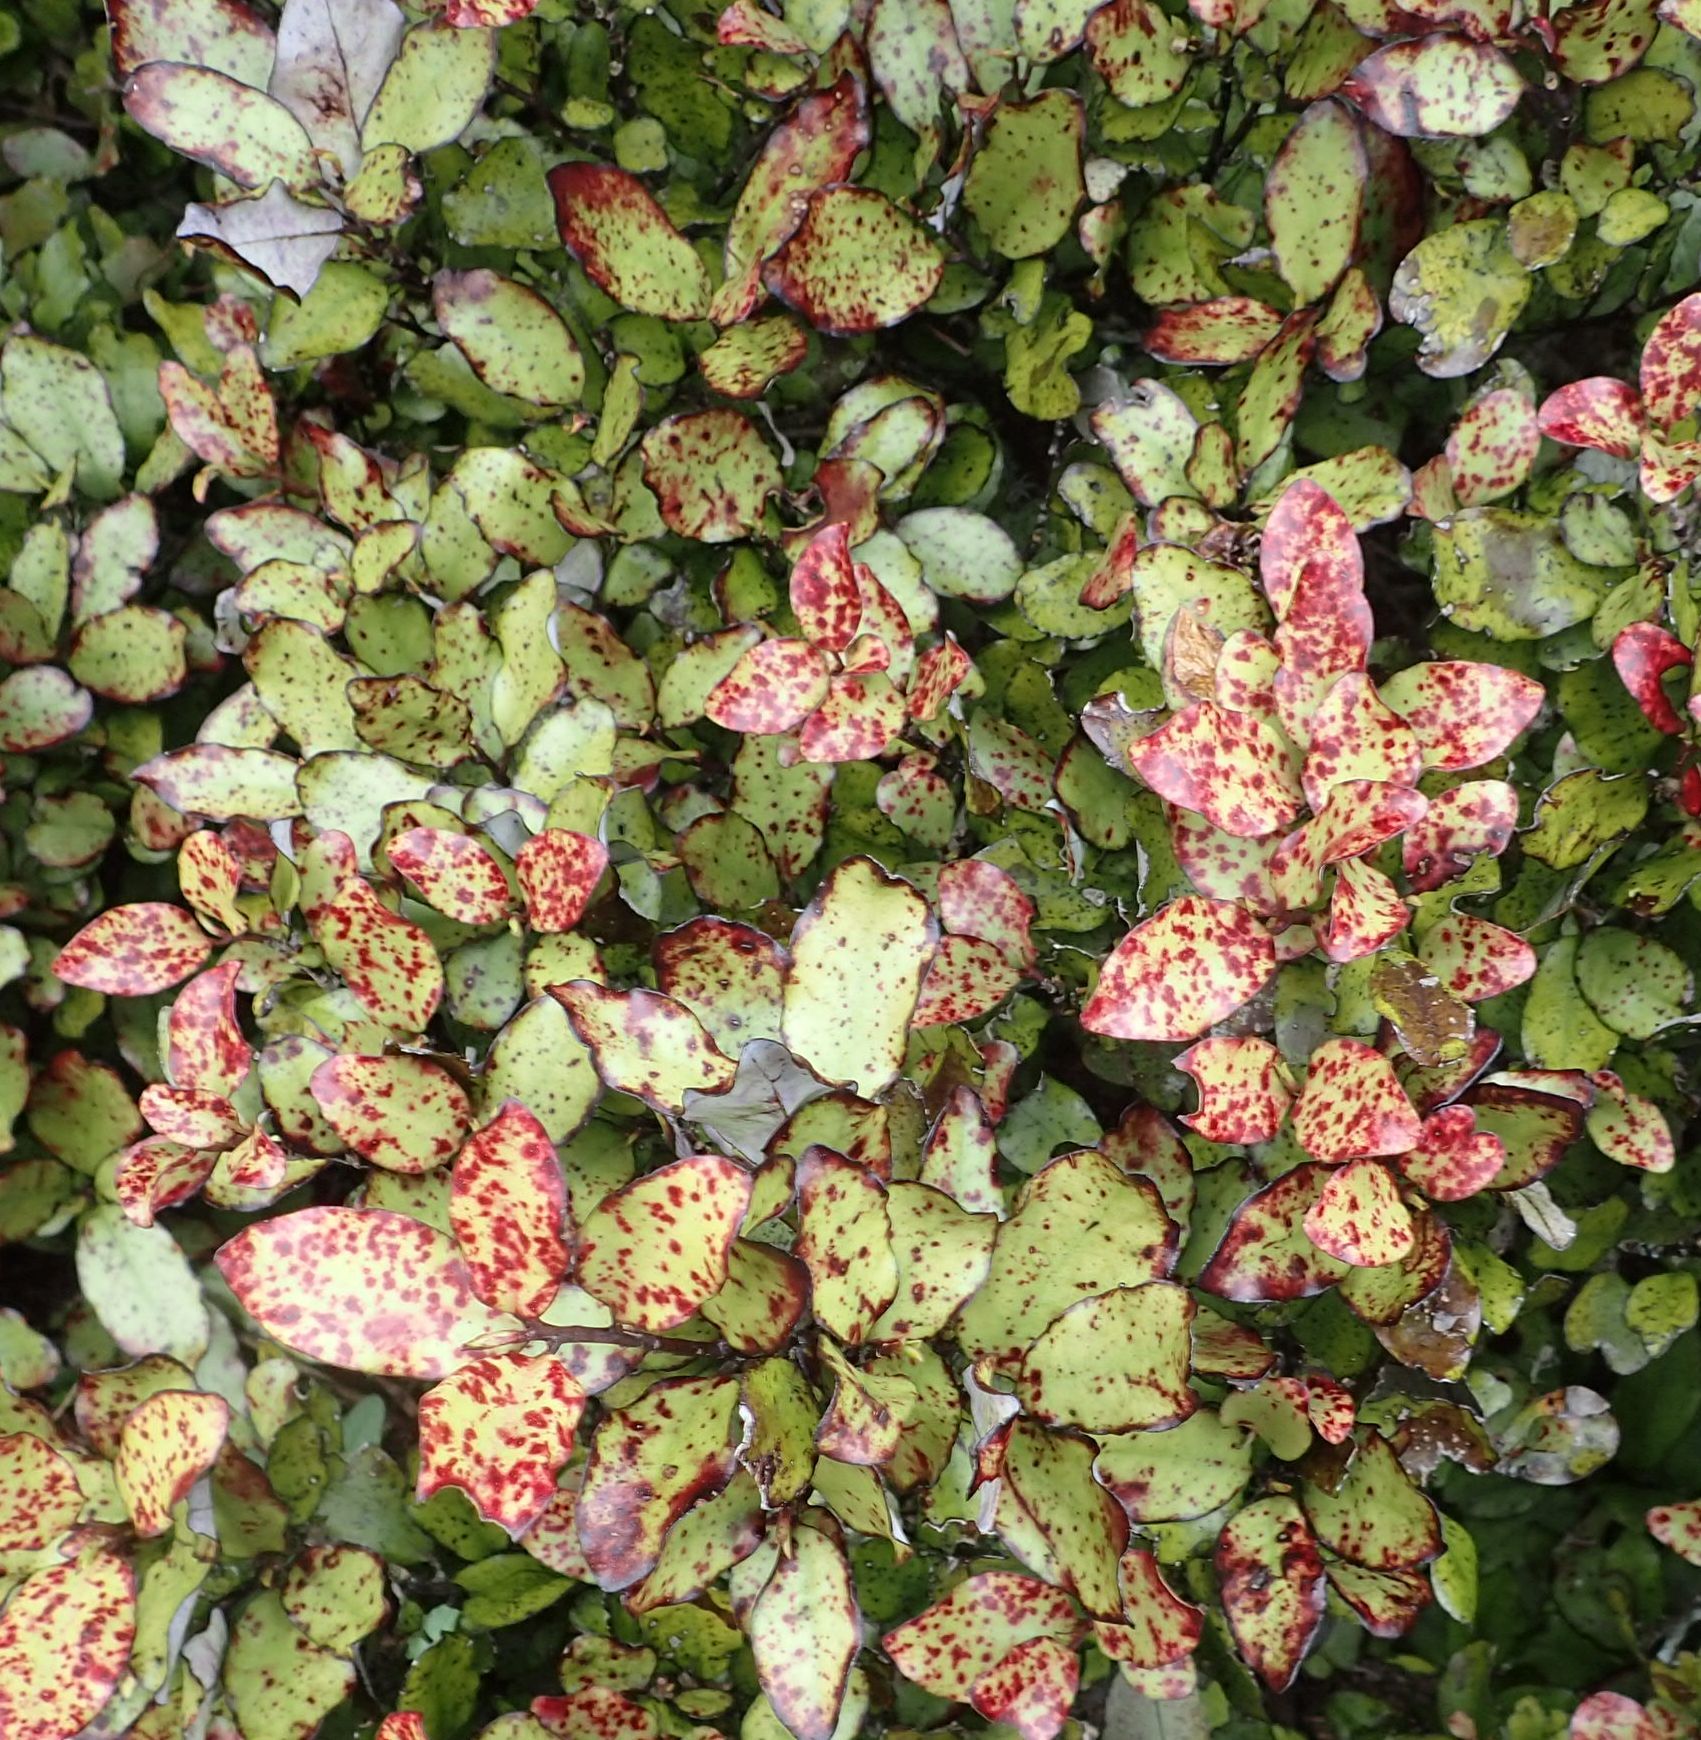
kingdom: Plantae
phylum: Tracheophyta
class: Magnoliopsida
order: Canellales
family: Winteraceae
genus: Pseudowintera
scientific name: Pseudowintera colorata
